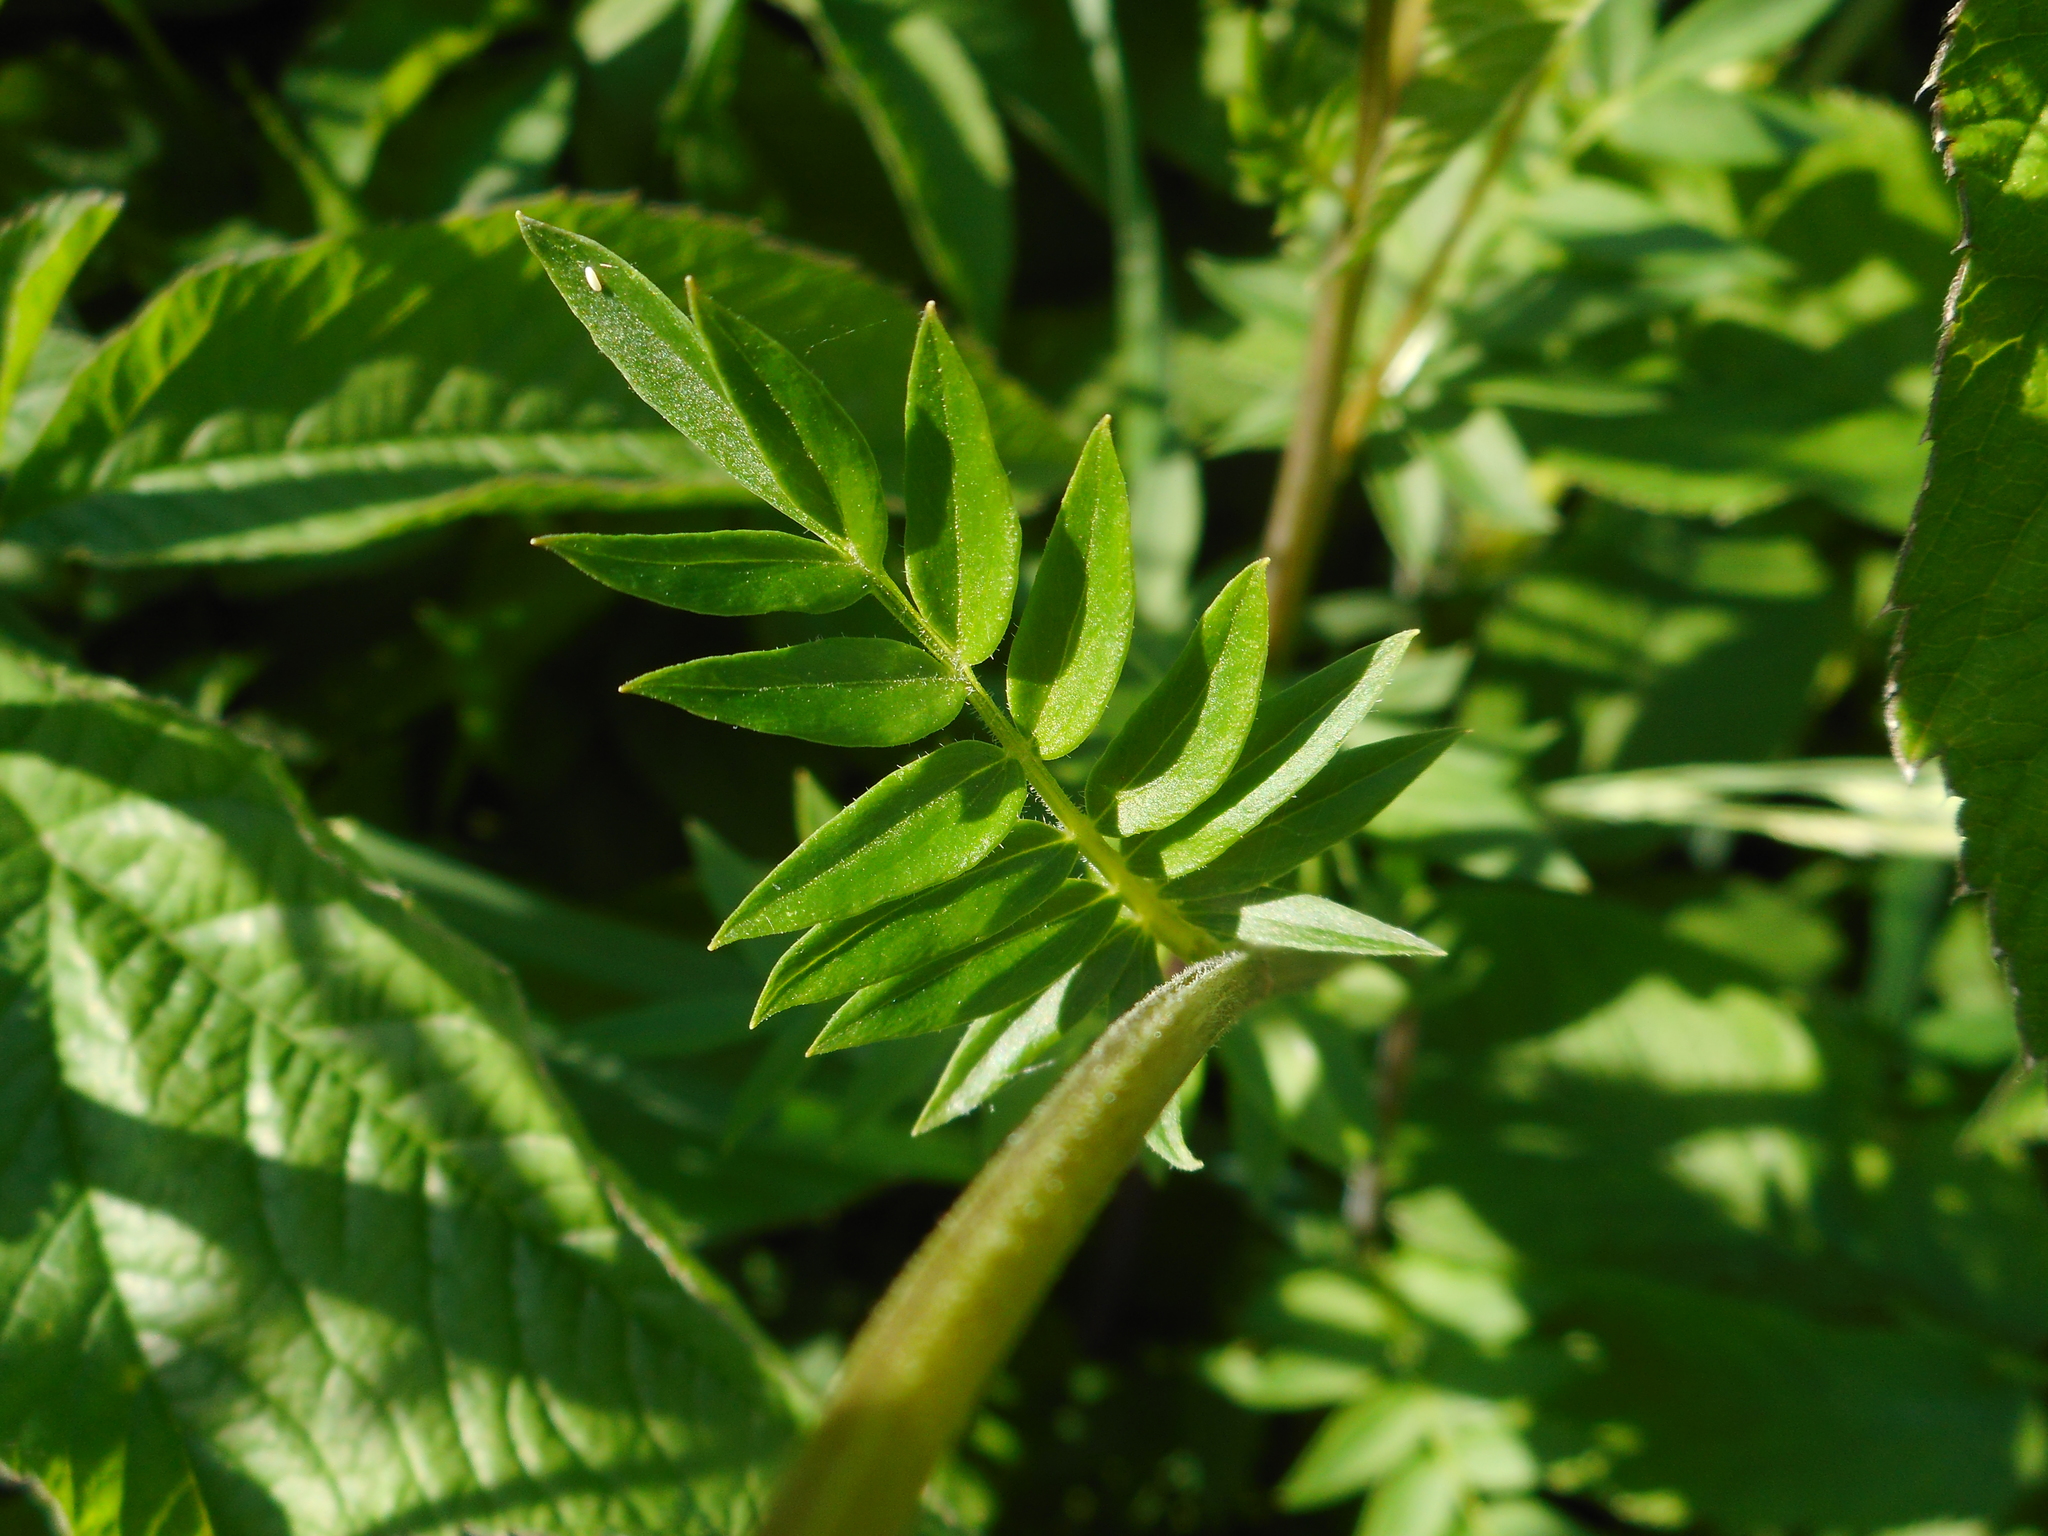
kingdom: Plantae
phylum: Tracheophyta
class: Magnoliopsida
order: Ericales
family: Polemoniaceae
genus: Polemonium
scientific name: Polemonium caeruleum
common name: Jacob's-ladder
